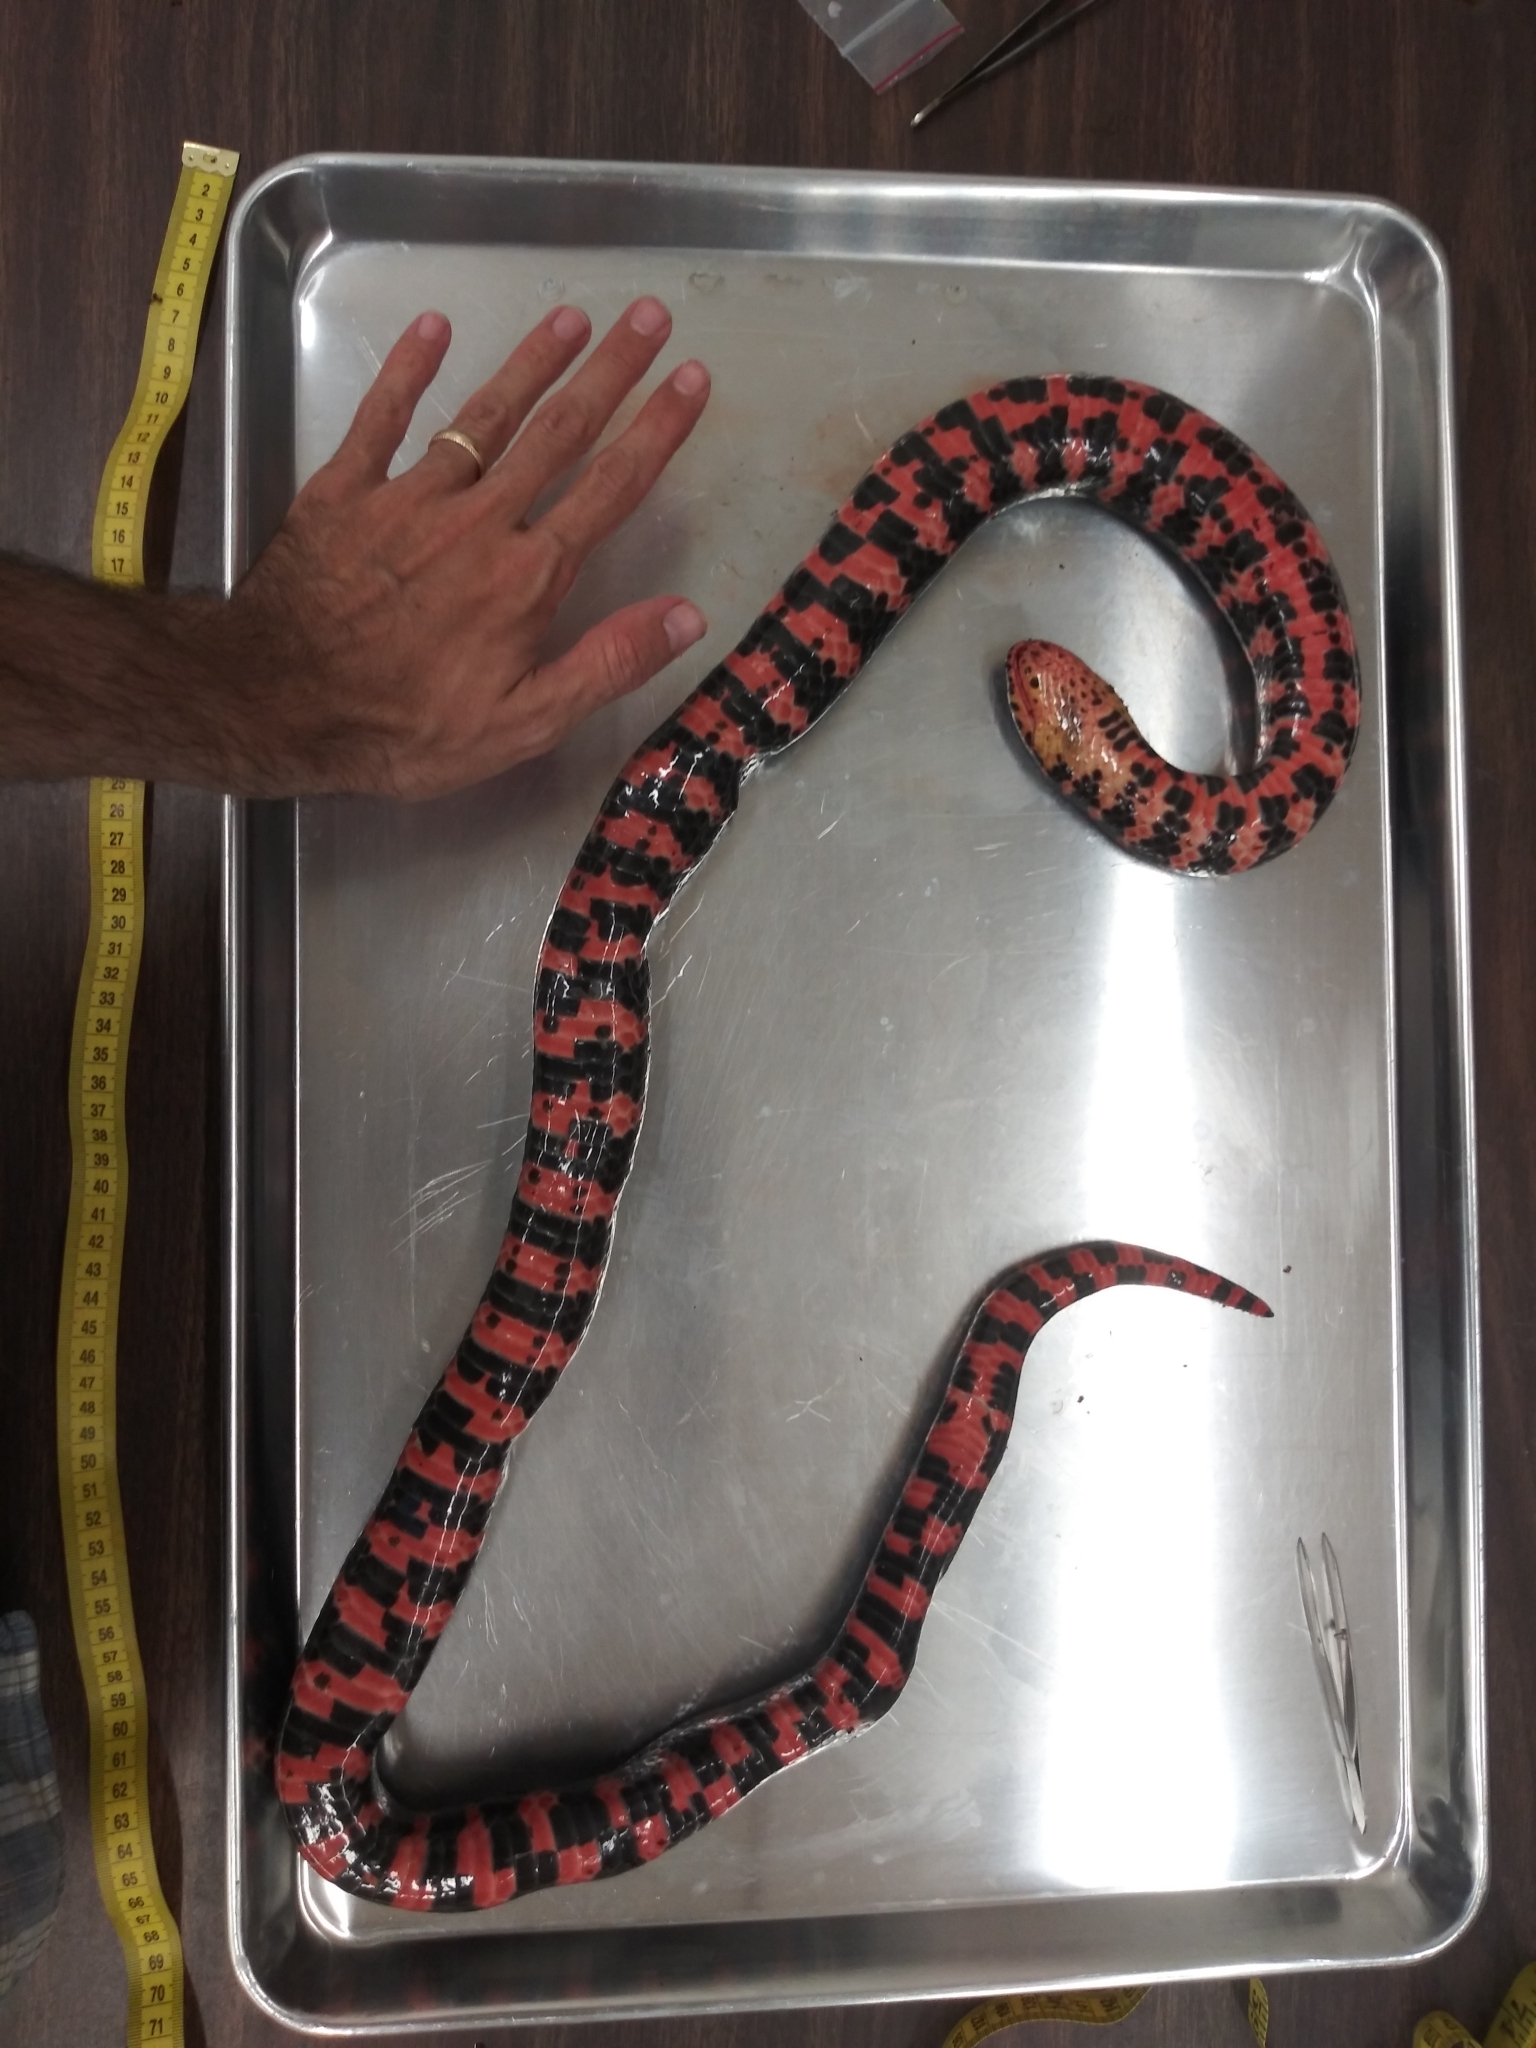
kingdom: Animalia
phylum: Chordata
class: Squamata
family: Colubridae
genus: Farancia
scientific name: Farancia abacura
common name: Mud snake
